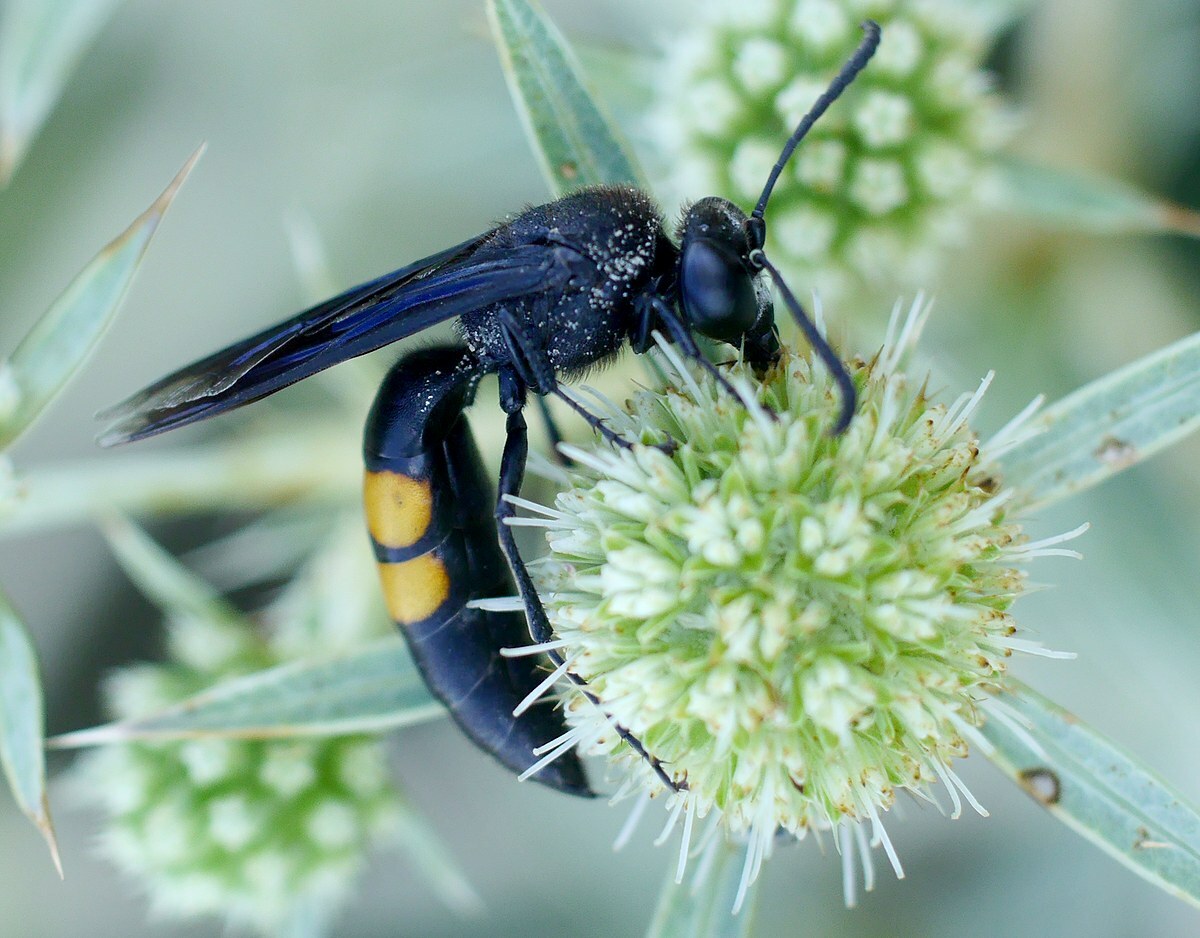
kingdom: Animalia
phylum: Arthropoda
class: Insecta
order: Hymenoptera
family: Crabronidae
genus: Stizoides
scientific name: Stizoides tridentatus
